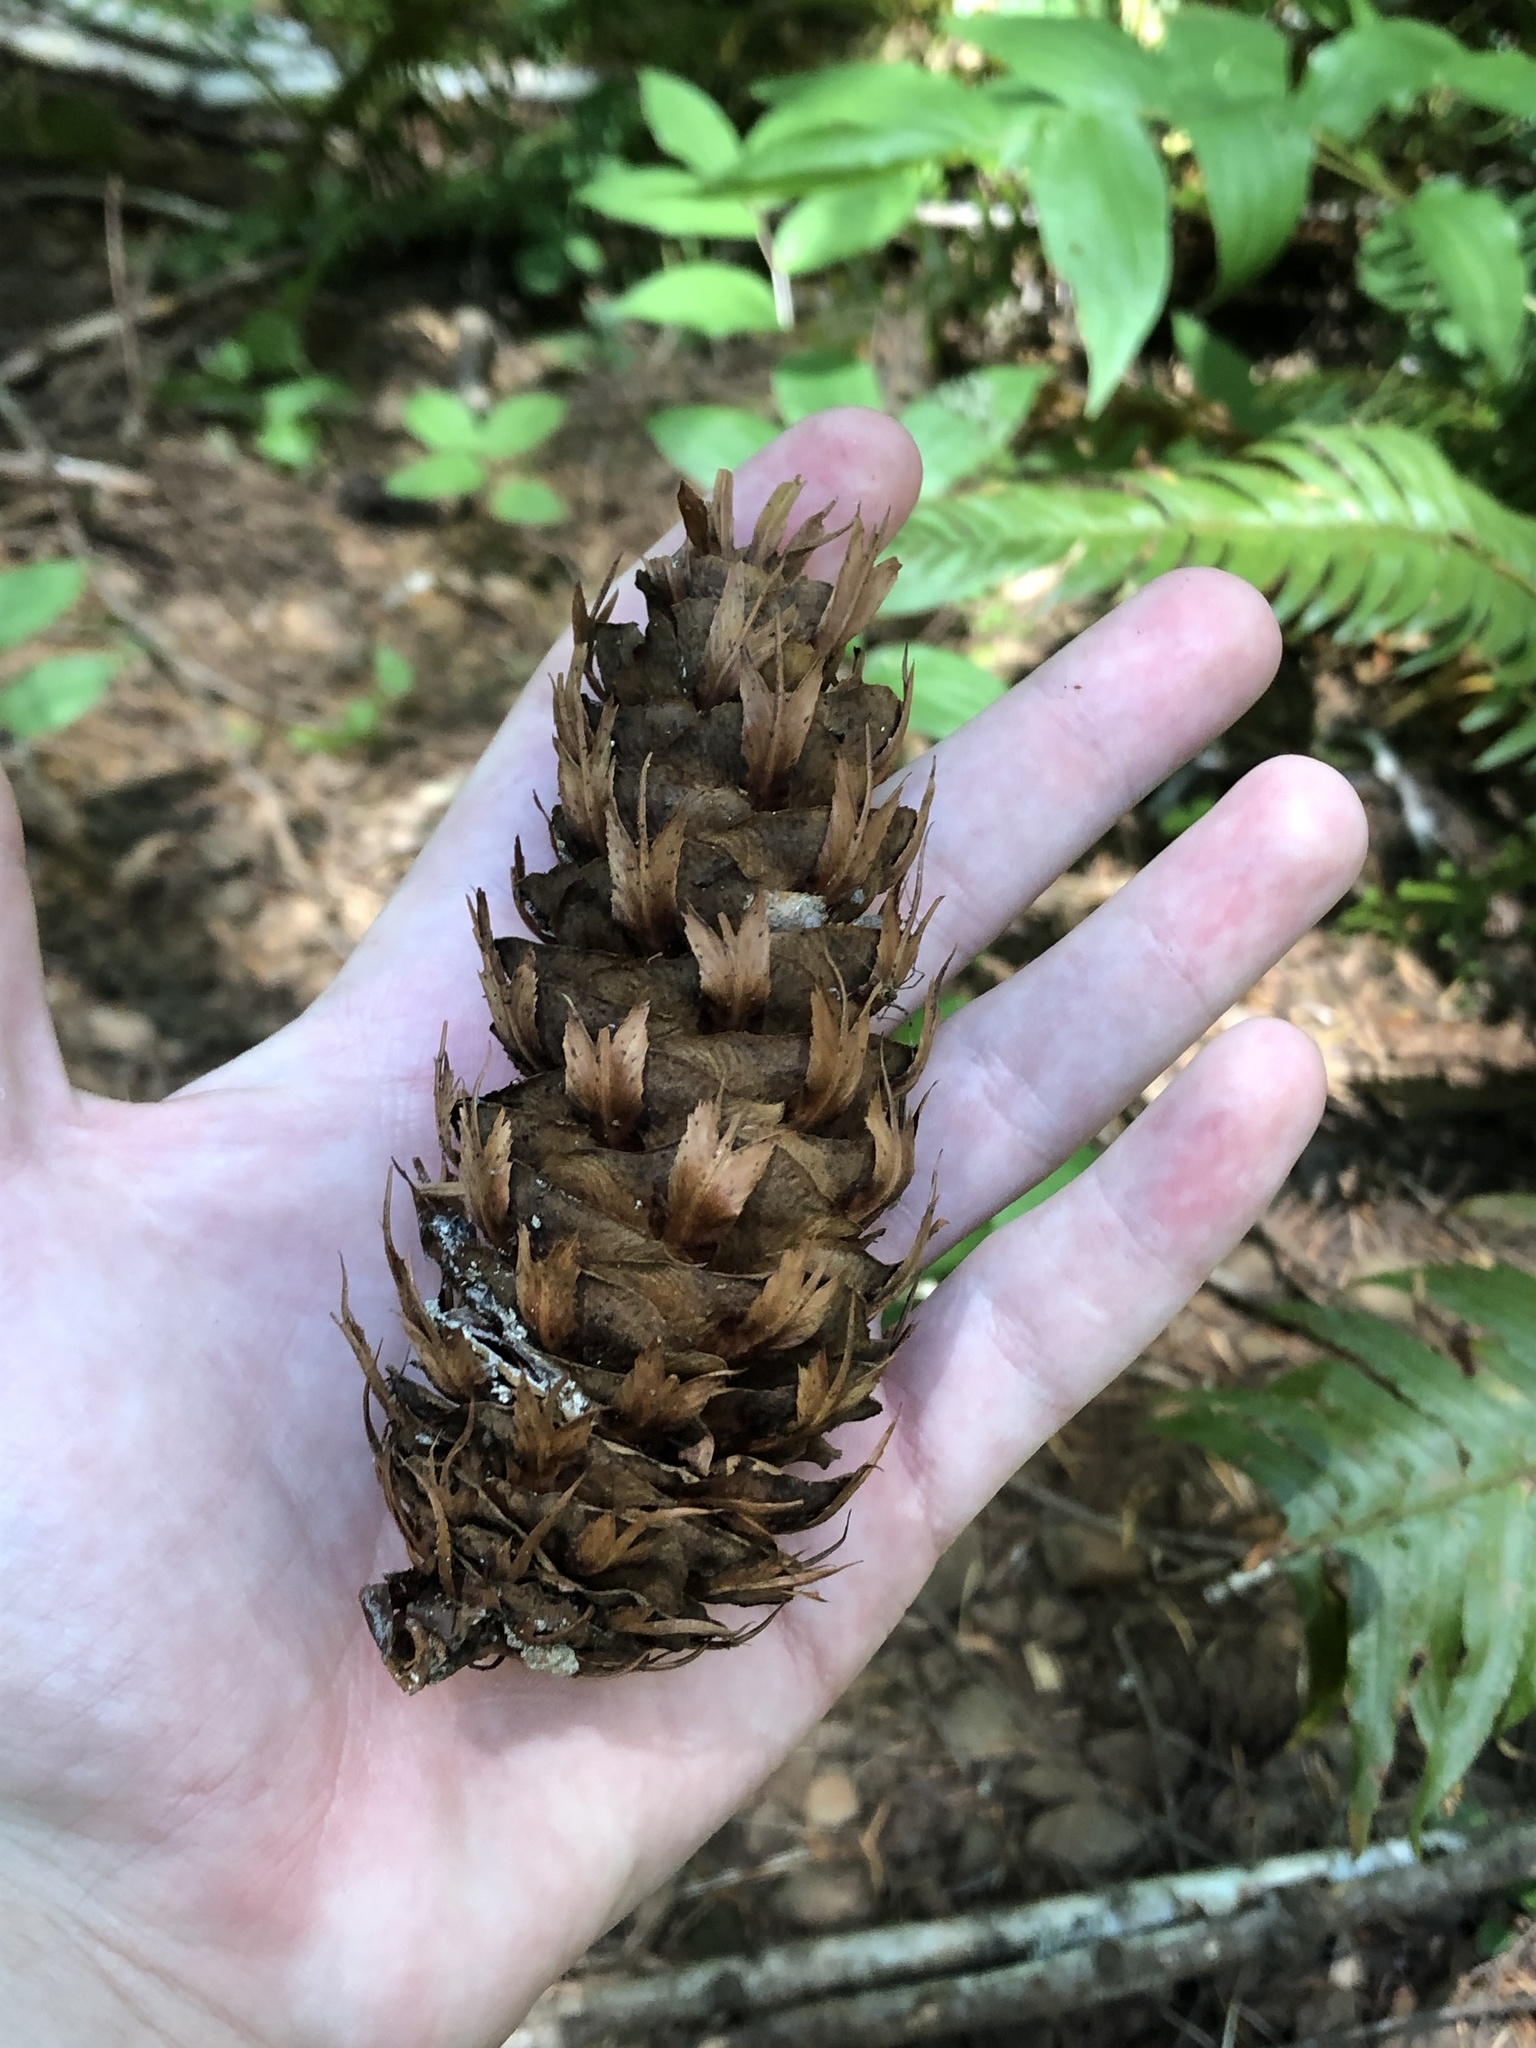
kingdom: Plantae
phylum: Tracheophyta
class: Pinopsida
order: Pinales
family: Pinaceae
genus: Pseudotsuga
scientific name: Pseudotsuga menziesii
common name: Douglas fir
